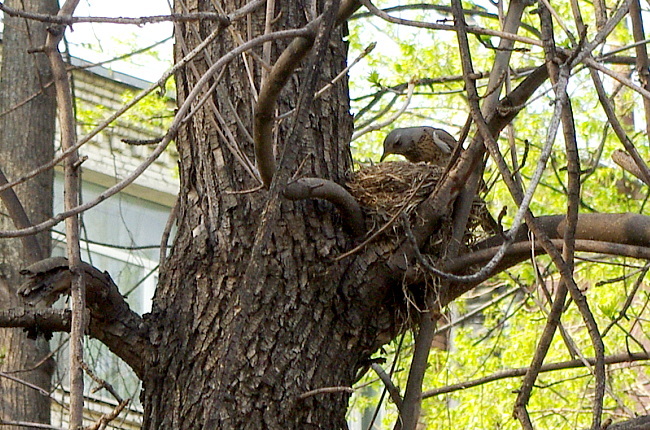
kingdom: Animalia
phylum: Chordata
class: Aves
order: Passeriformes
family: Turdidae
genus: Turdus
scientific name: Turdus pilaris
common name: Fieldfare
